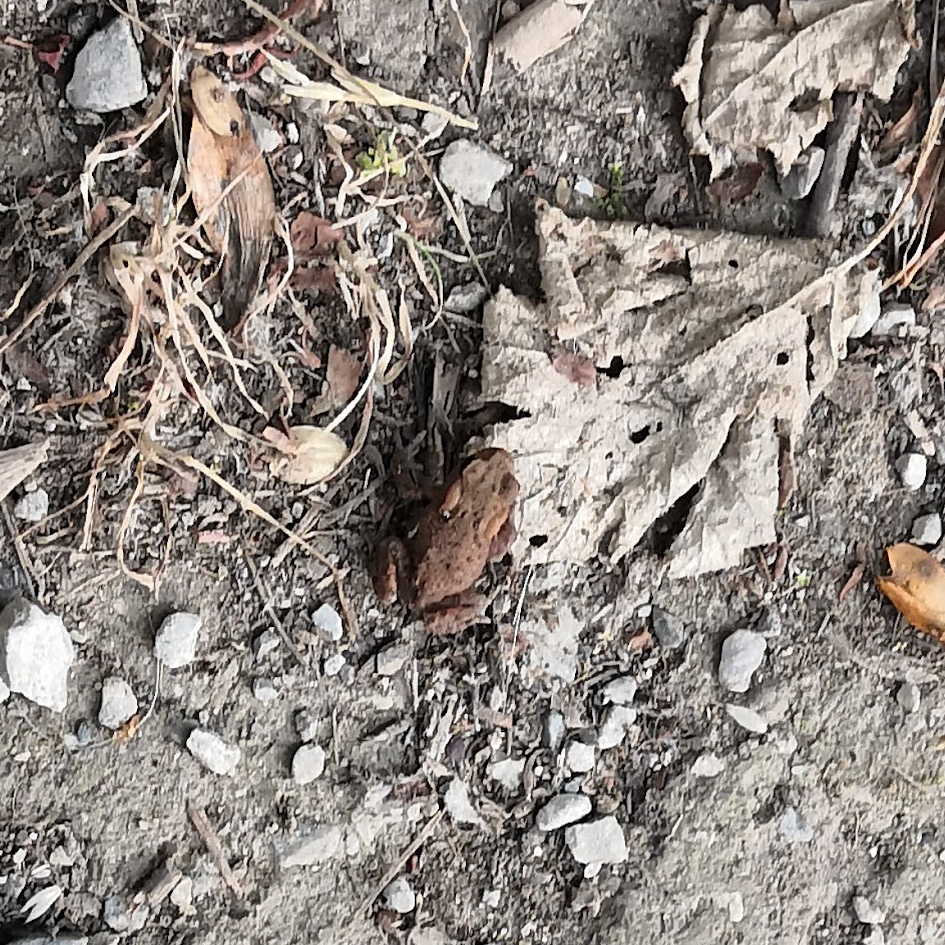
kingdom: Animalia
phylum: Chordata
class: Amphibia
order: Anura
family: Bufonidae
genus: Bufo
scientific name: Bufo bufo
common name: Common toad
